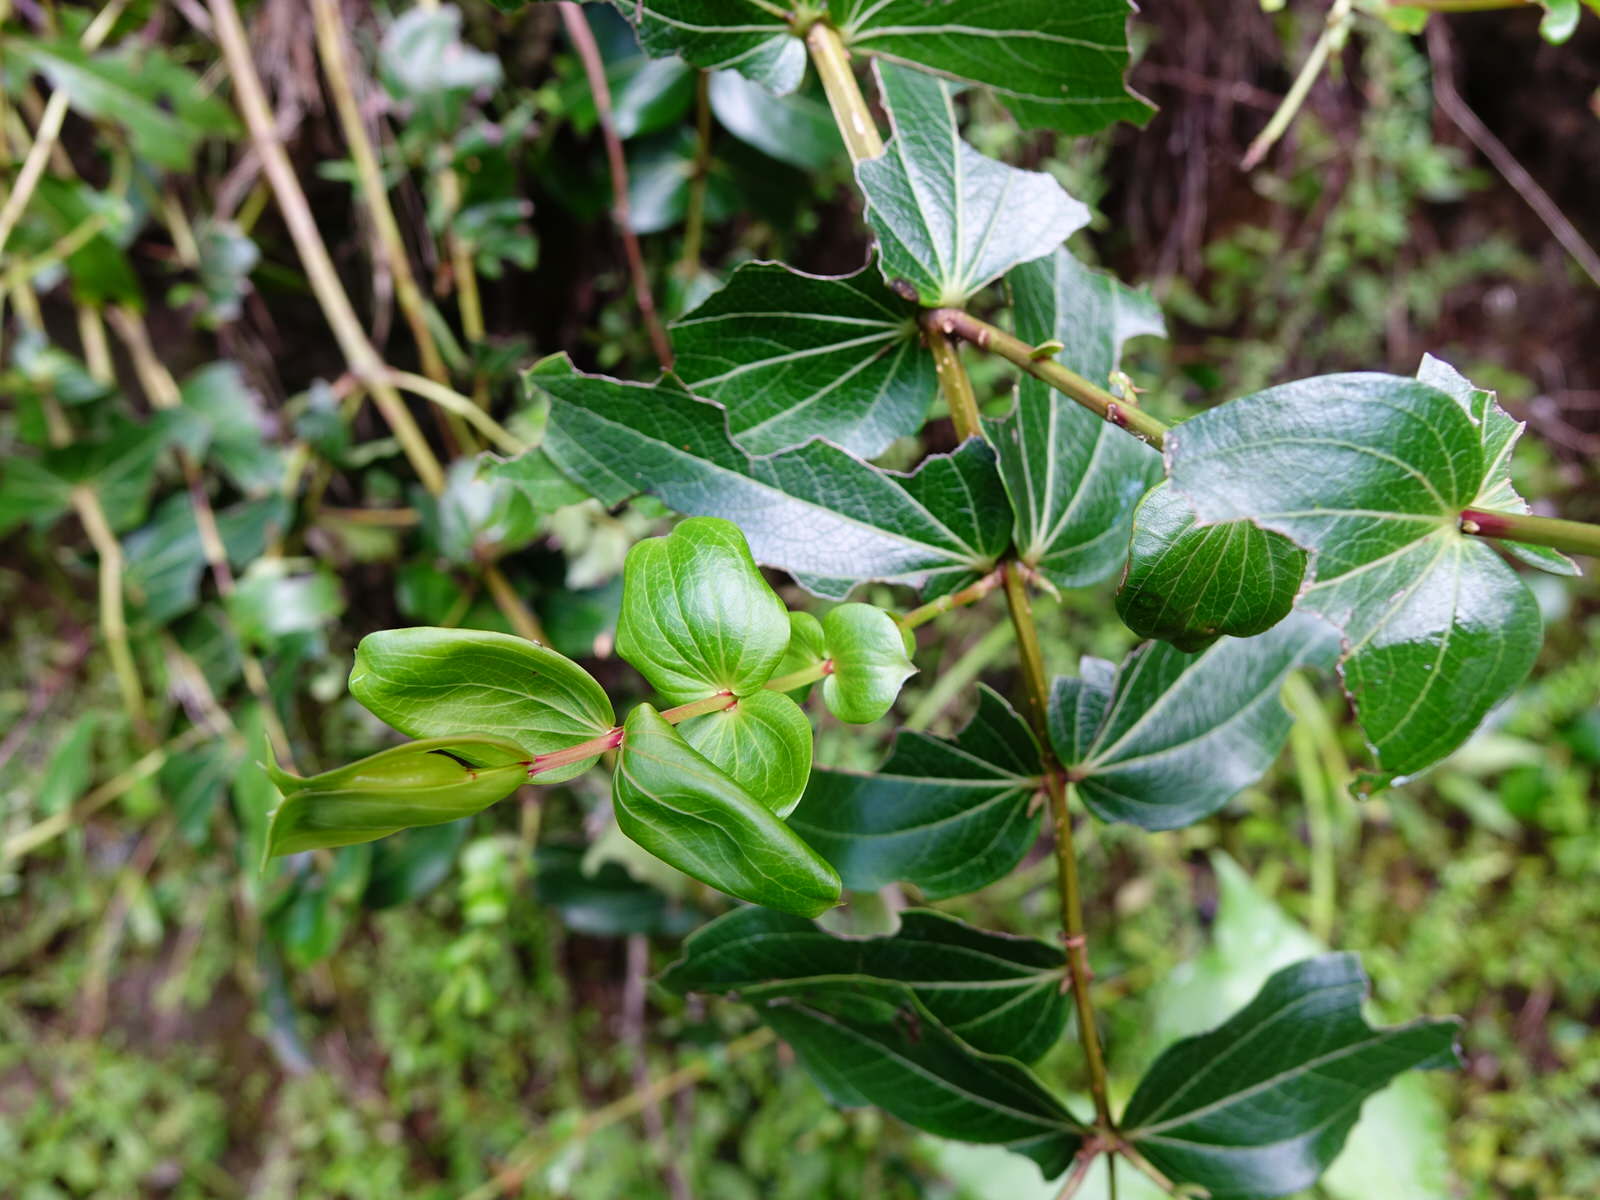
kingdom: Plantae
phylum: Tracheophyta
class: Magnoliopsida
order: Cucurbitales
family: Coriariaceae
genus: Coriaria
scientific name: Coriaria arborea
